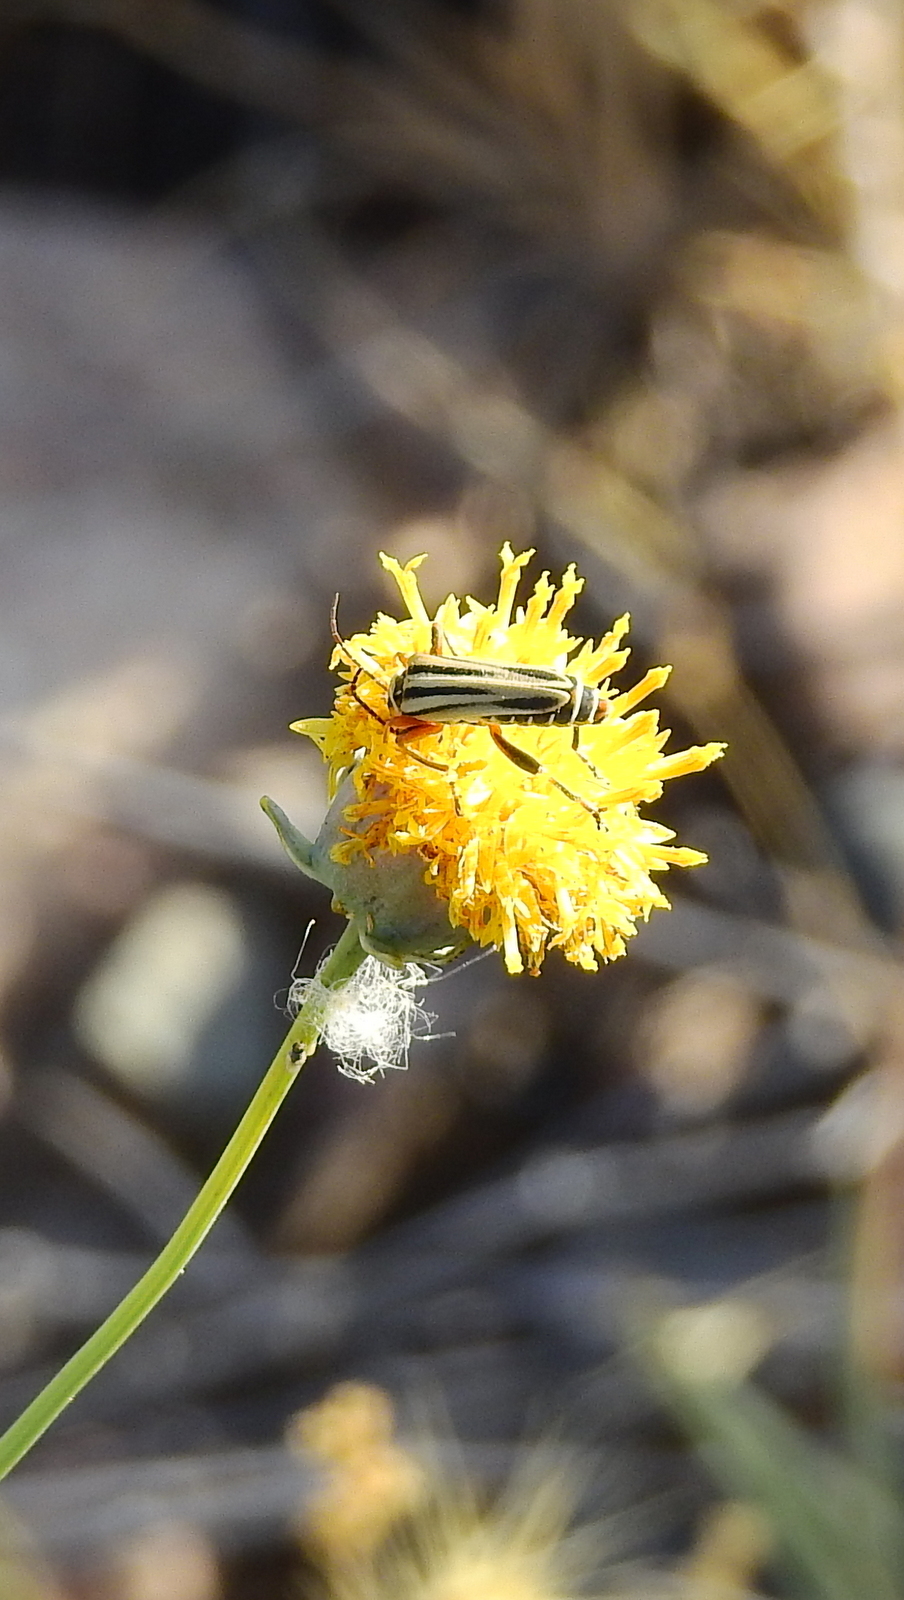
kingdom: Animalia
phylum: Arthropoda
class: Insecta
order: Coleoptera
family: Cantharidae
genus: Chauliognathus
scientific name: Chauliognathus
